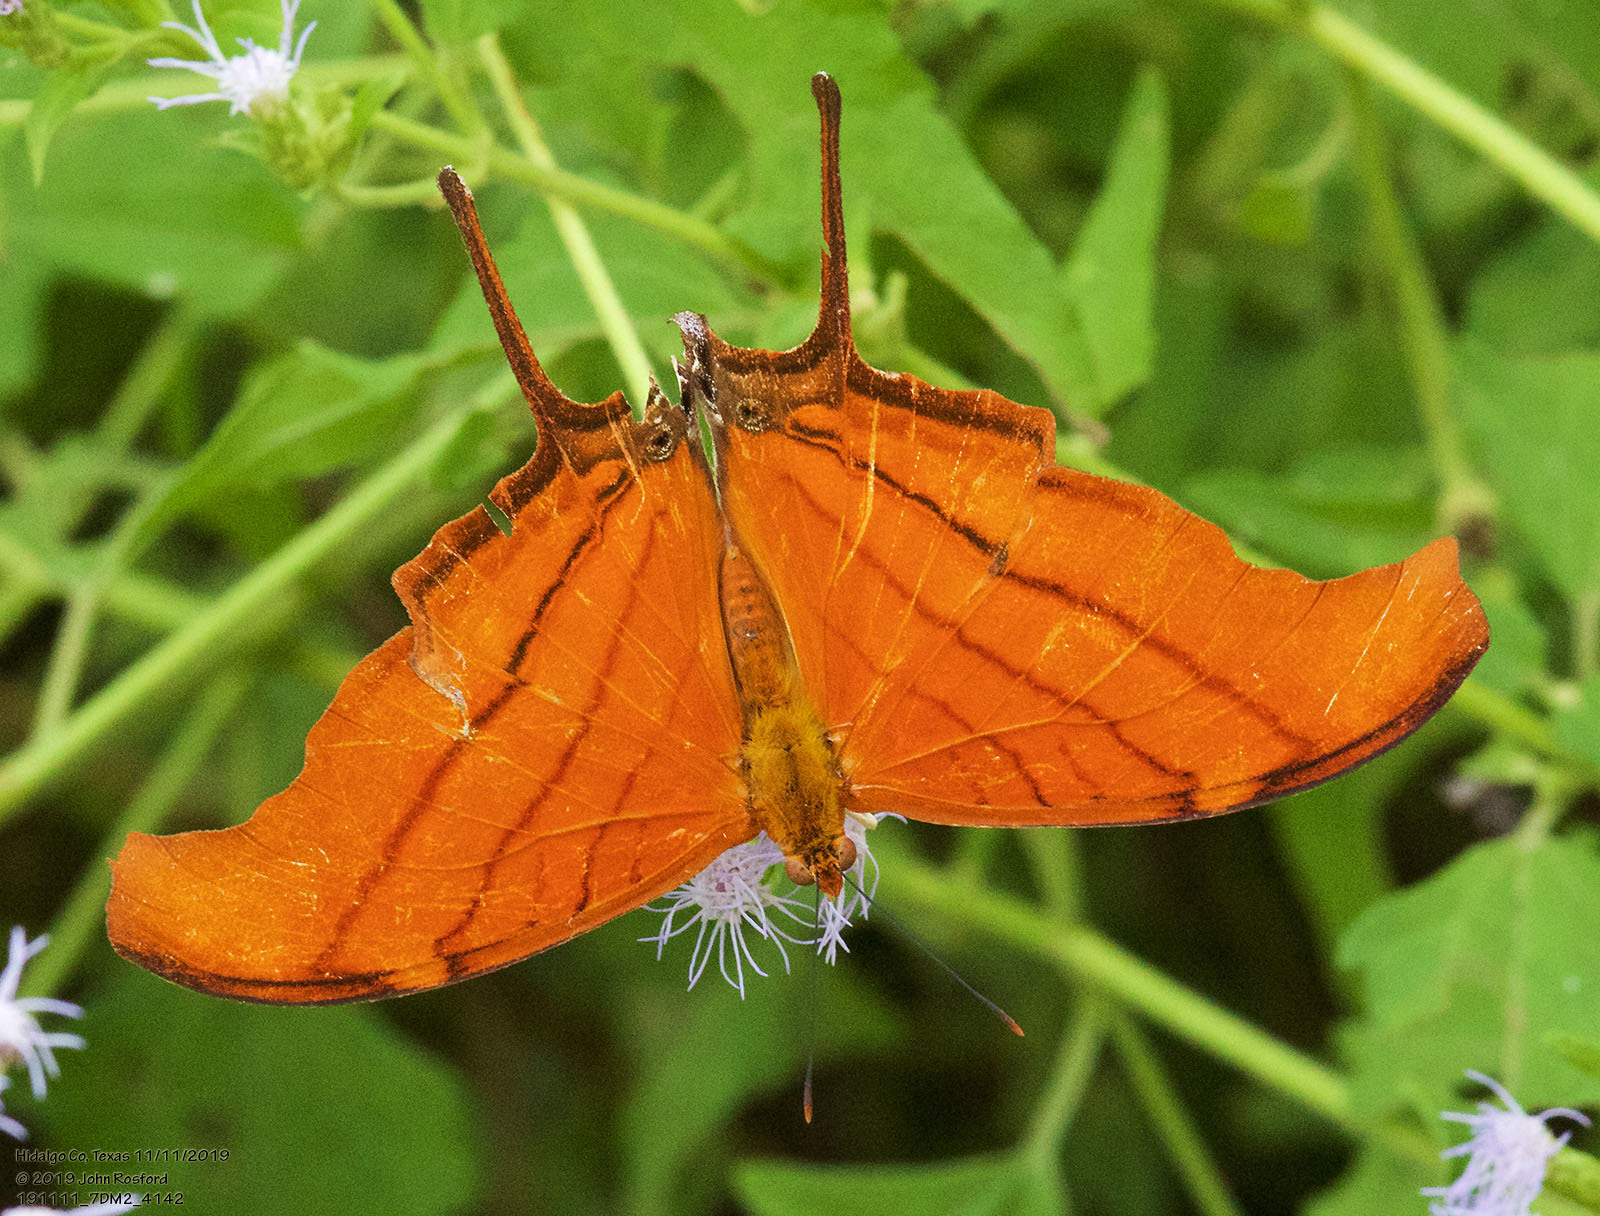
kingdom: Animalia
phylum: Arthropoda
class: Insecta
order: Lepidoptera
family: Nymphalidae
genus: Marpesia
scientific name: Marpesia petreus
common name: Red dagger wing
